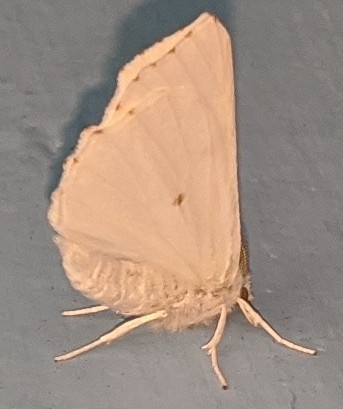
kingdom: Animalia
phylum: Arthropoda
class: Insecta
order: Lepidoptera
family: Geometridae
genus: Ennomos
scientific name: Ennomos subsignaria
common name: Elm spanworm
